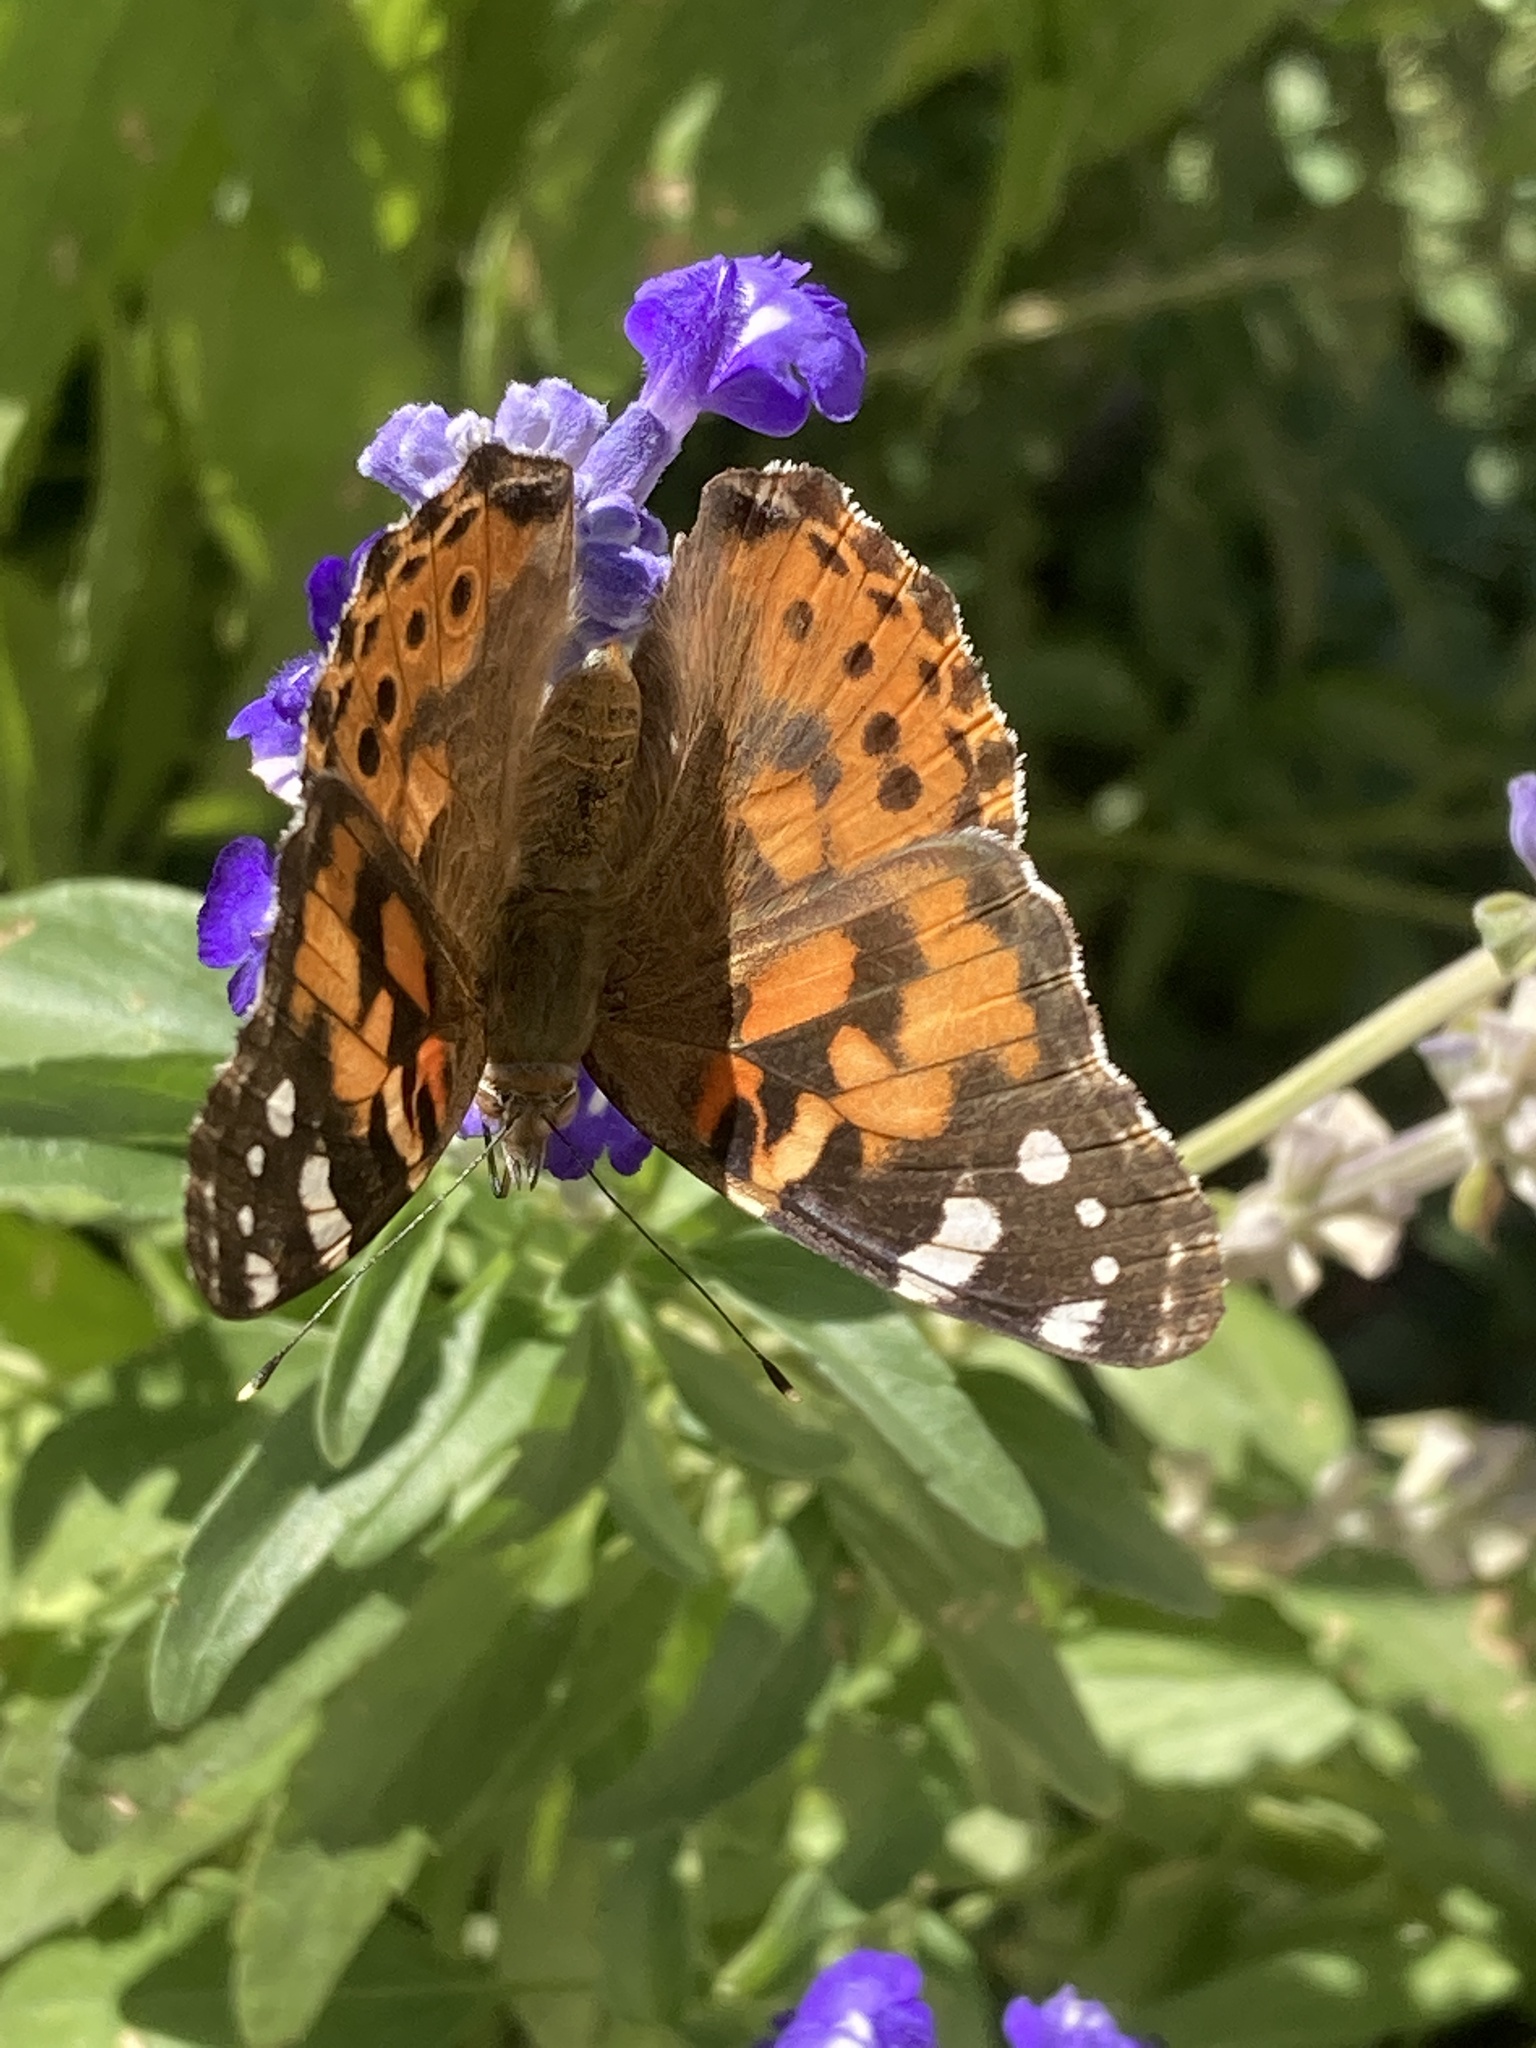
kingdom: Animalia
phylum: Arthropoda
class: Insecta
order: Lepidoptera
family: Nymphalidae
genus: Vanessa
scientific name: Vanessa cardui
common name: Painted lady
